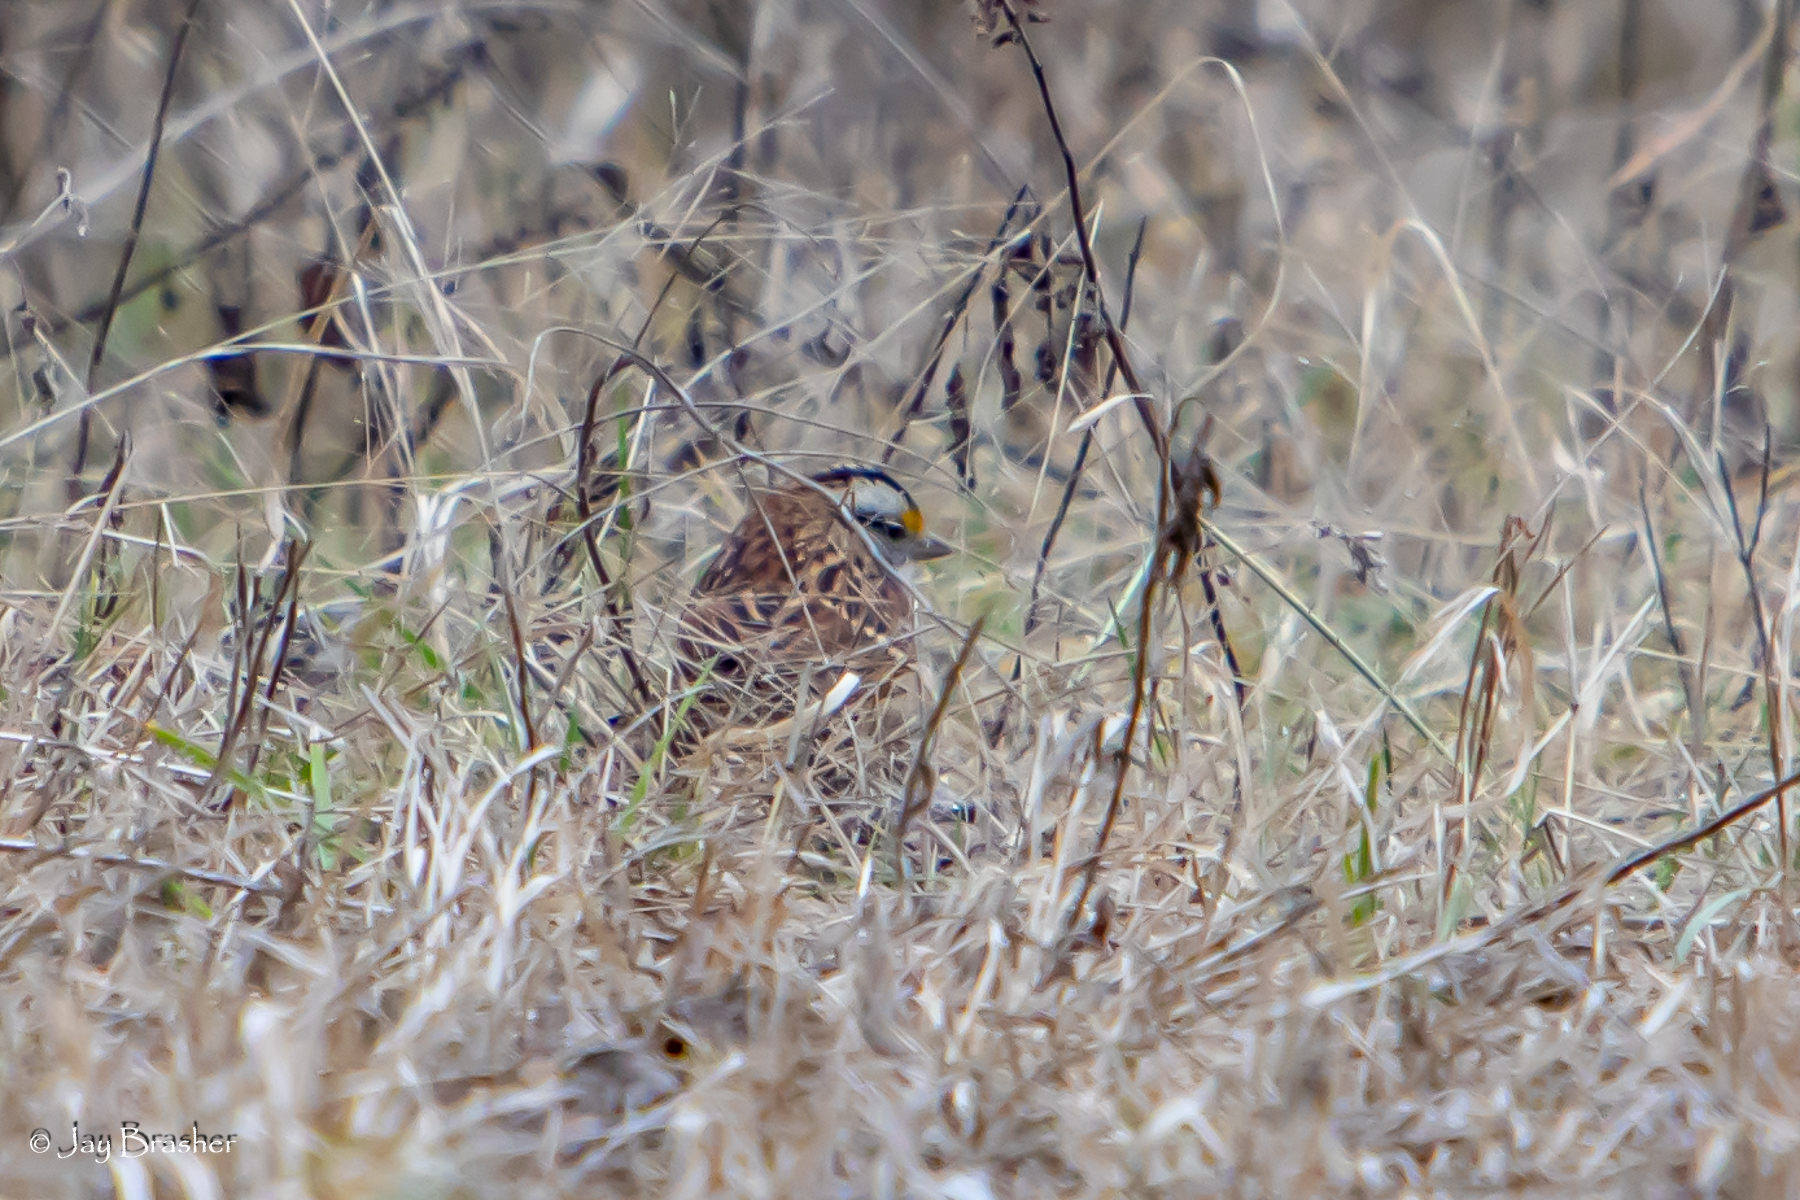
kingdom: Animalia
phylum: Chordata
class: Aves
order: Passeriformes
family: Passerellidae
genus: Zonotrichia
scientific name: Zonotrichia albicollis
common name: White-throated sparrow
